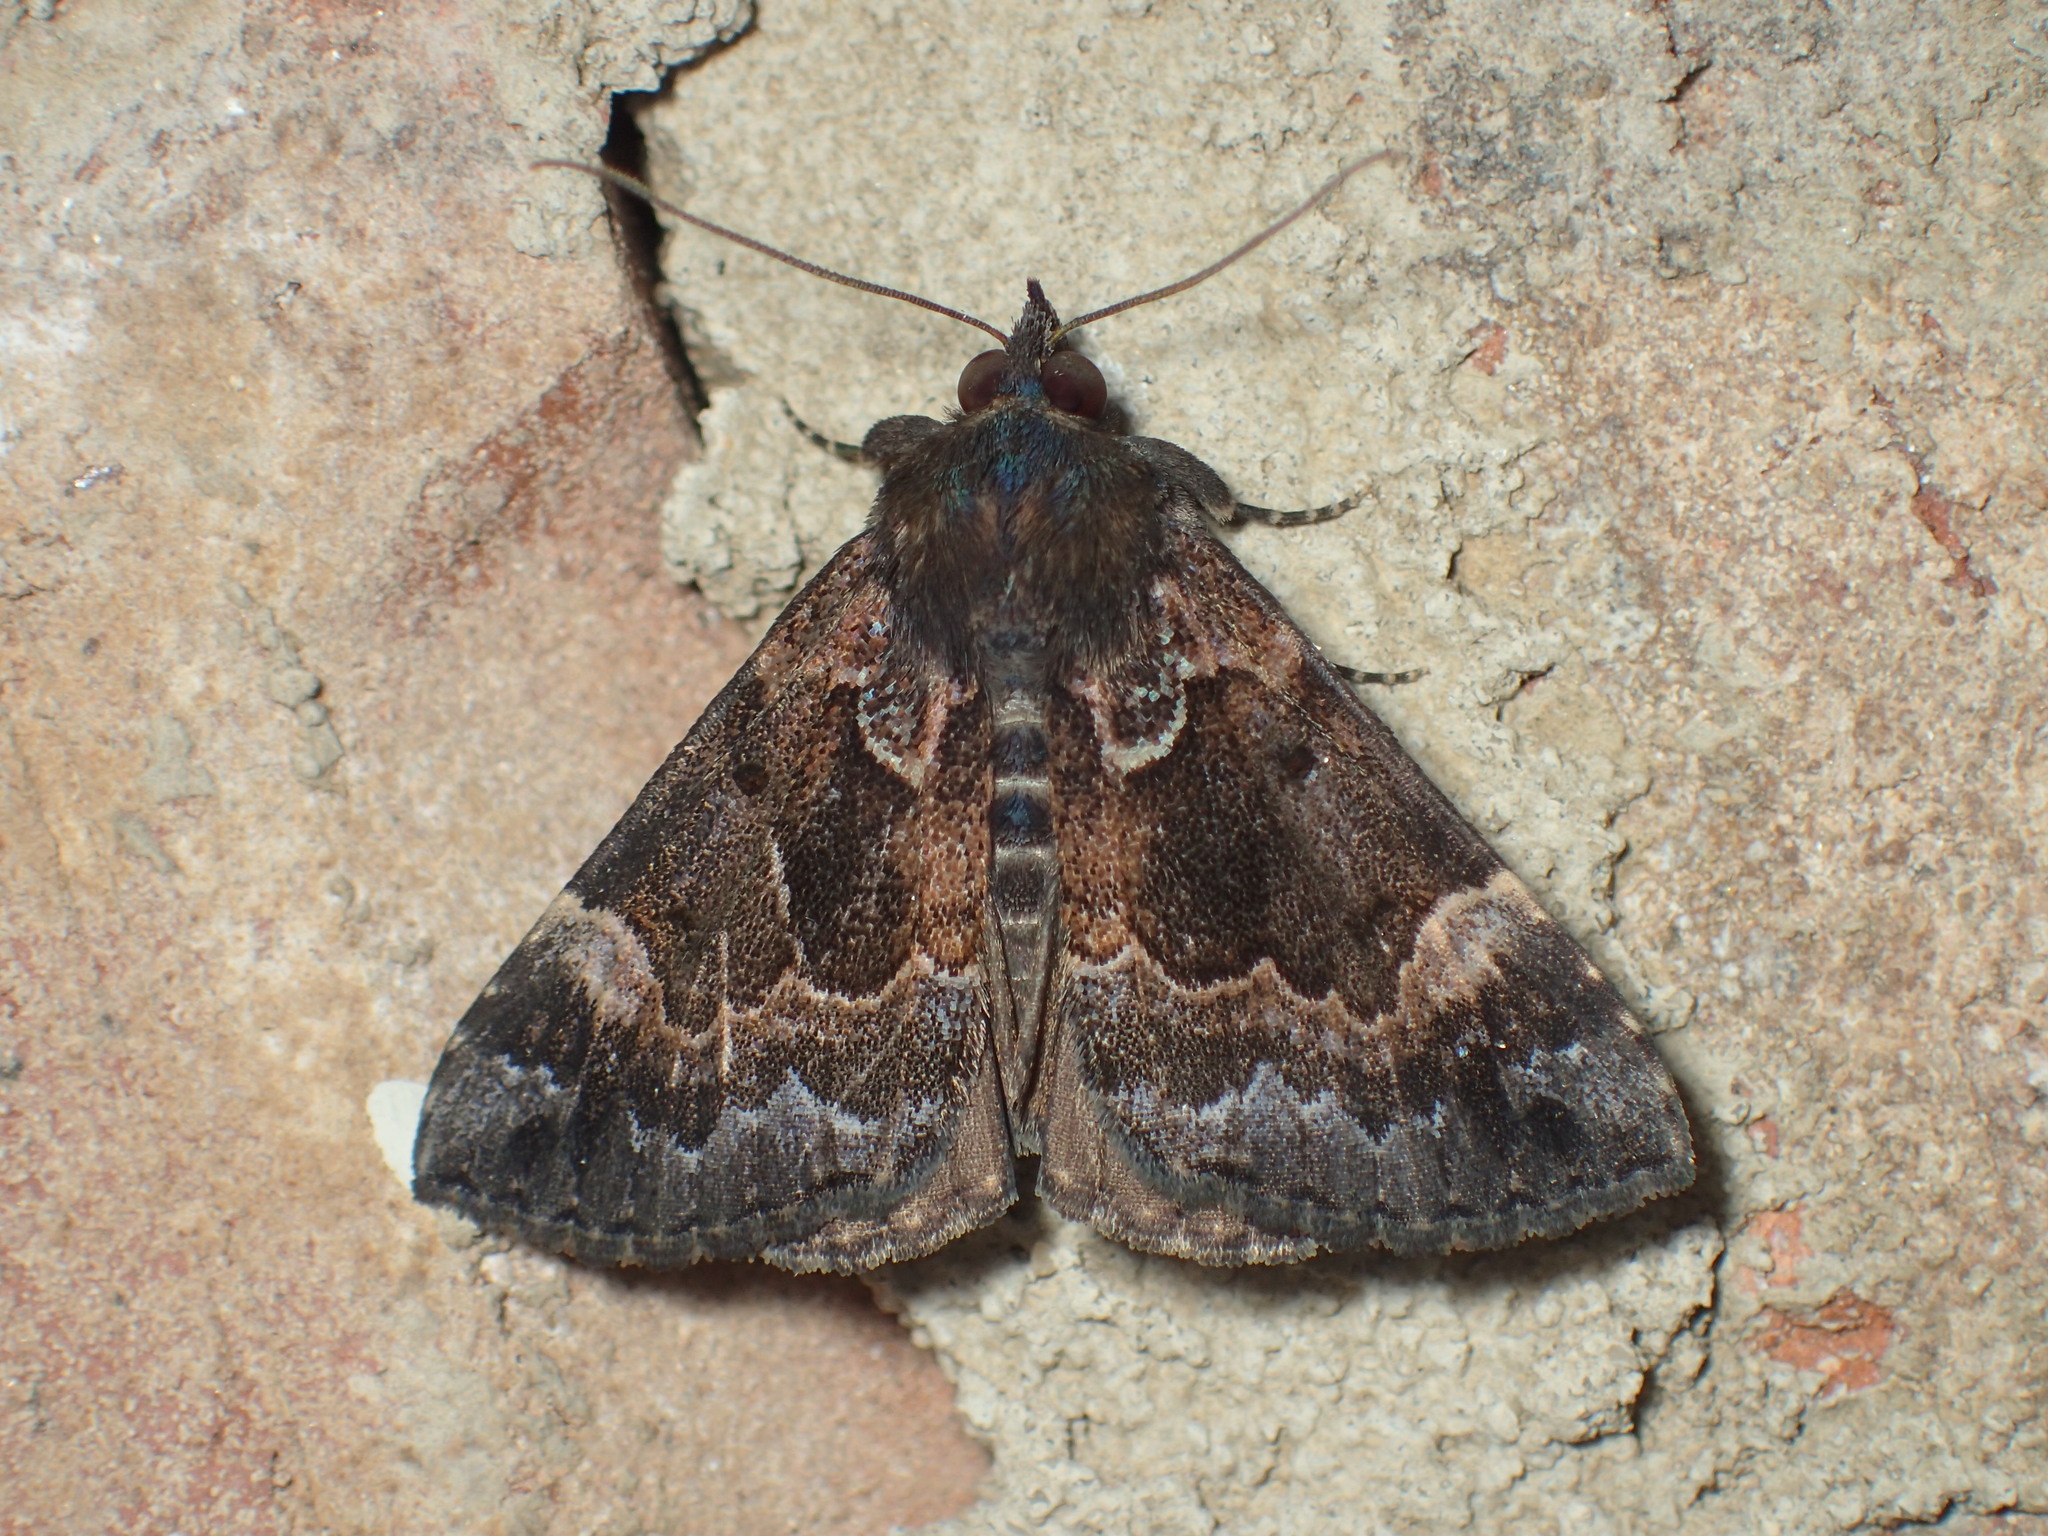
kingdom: Animalia
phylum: Arthropoda
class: Insecta
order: Lepidoptera
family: Erebidae
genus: Hypena
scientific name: Hypena palparia
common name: Mottled bomolocha moth
